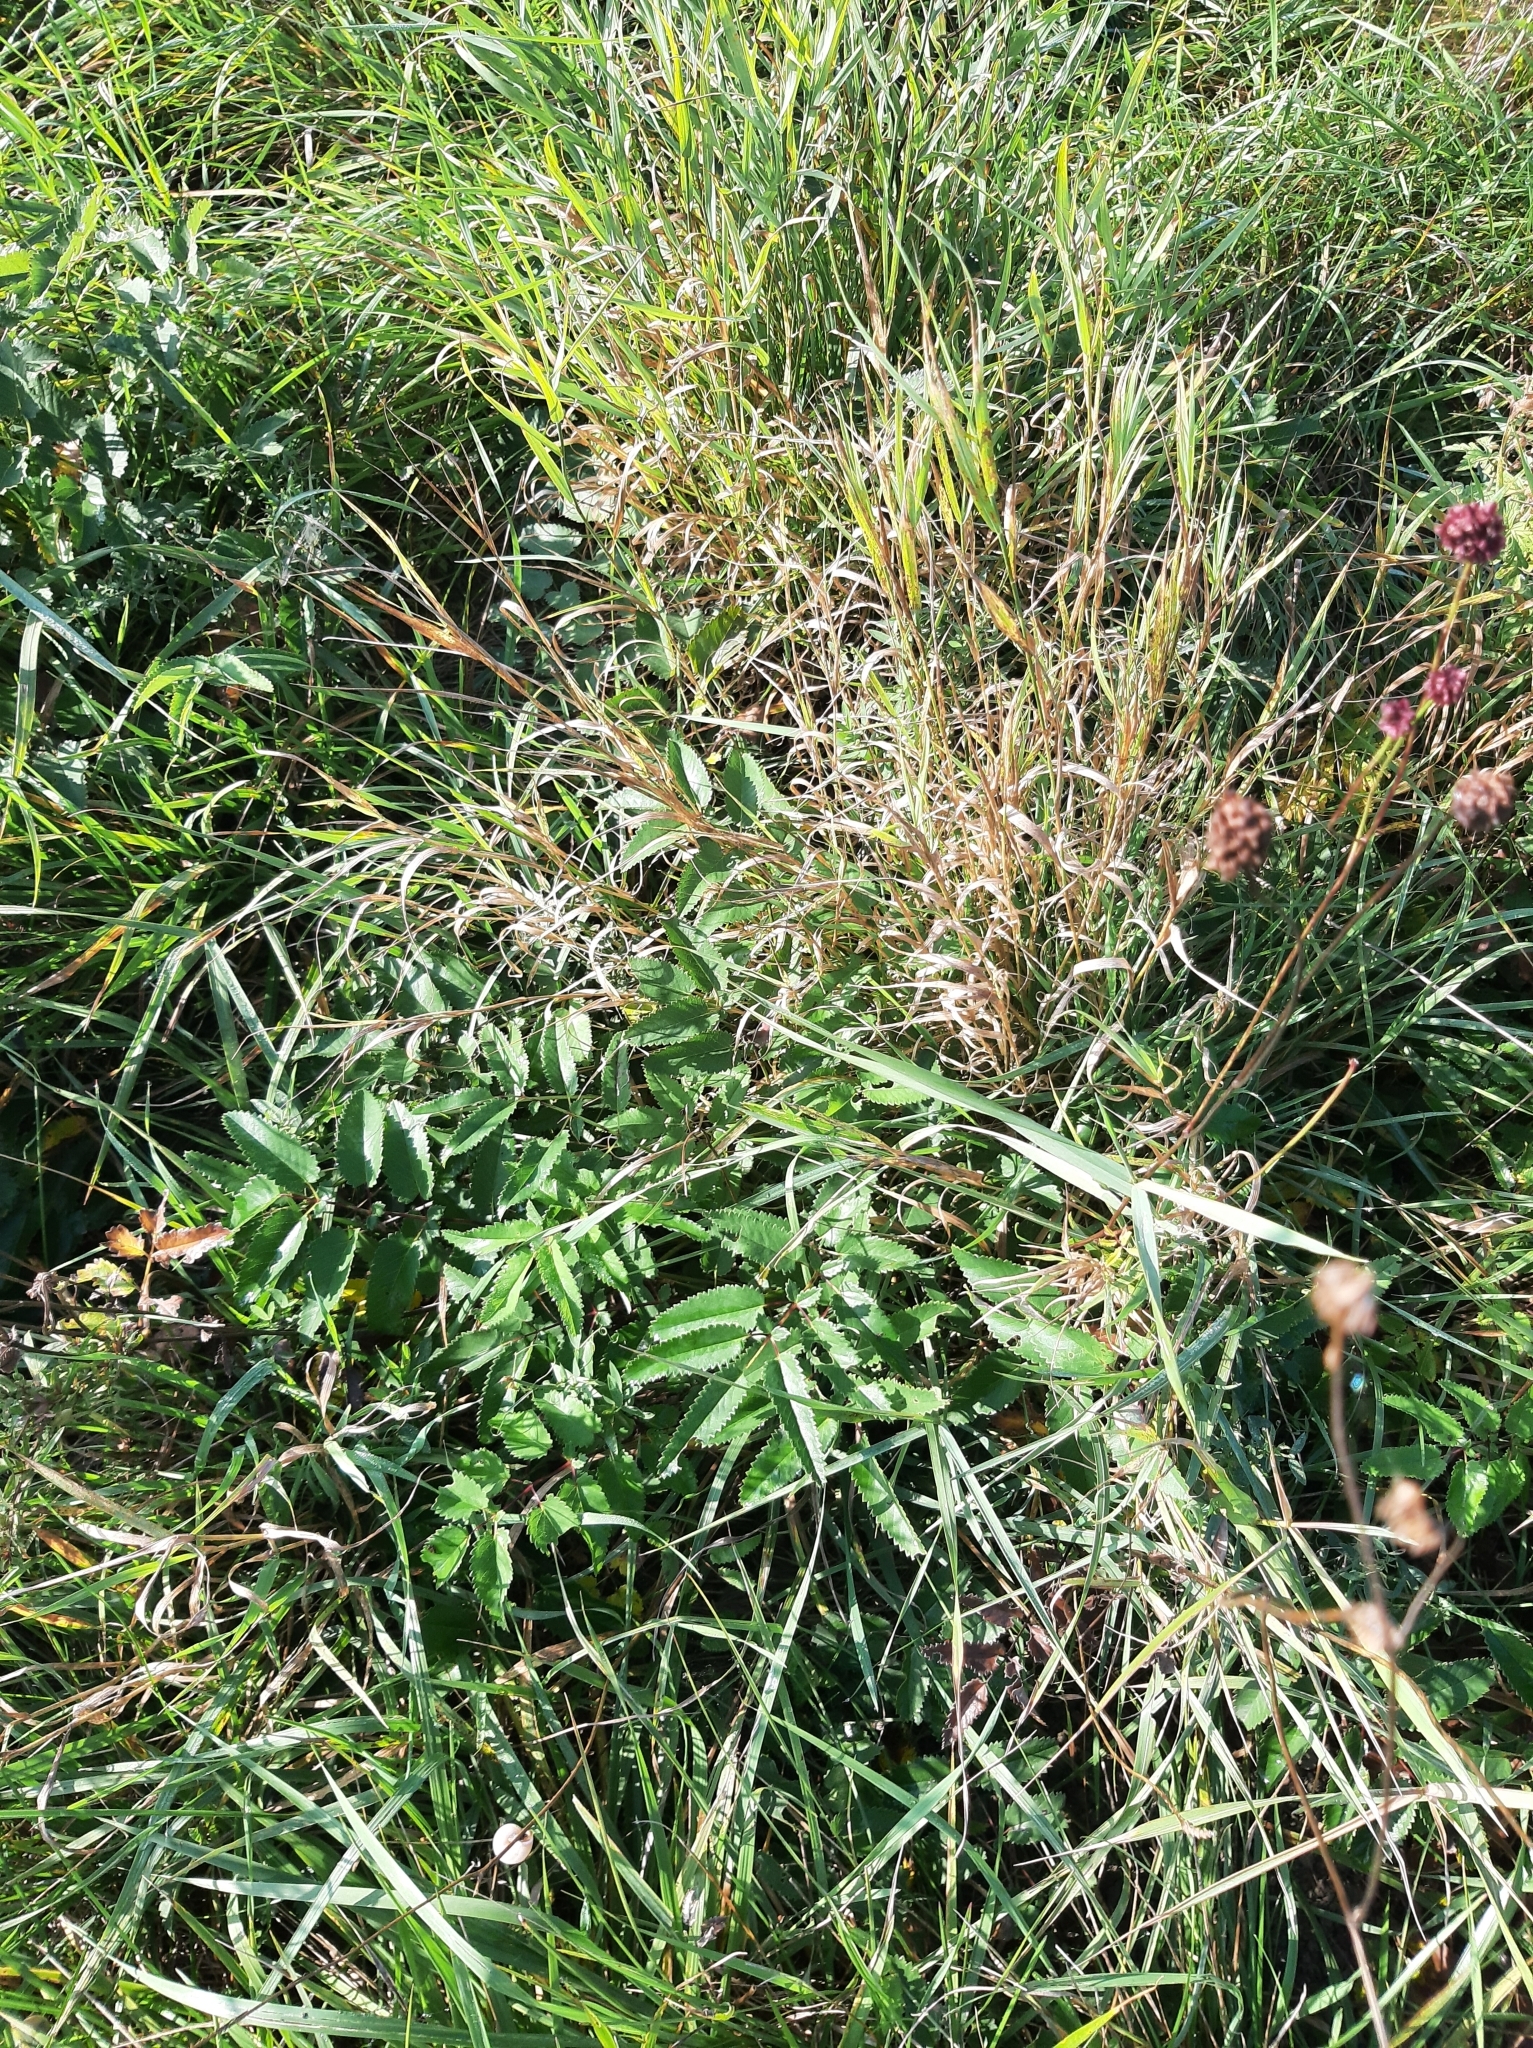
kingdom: Plantae
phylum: Tracheophyta
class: Magnoliopsida
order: Rosales
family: Rosaceae
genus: Sanguisorba
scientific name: Sanguisorba officinalis
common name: Great burnet
